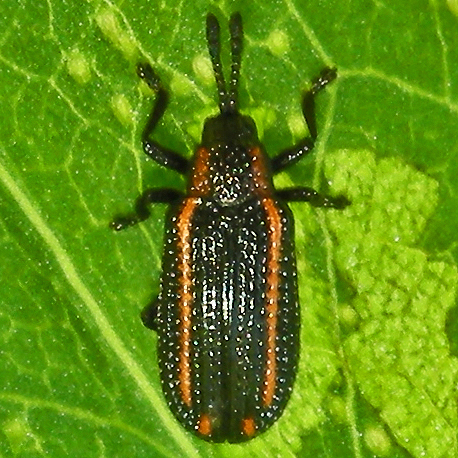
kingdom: Animalia
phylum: Arthropoda
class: Insecta
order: Coleoptera
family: Chrysomelidae
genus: Microrhopala
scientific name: Microrhopala xerene
